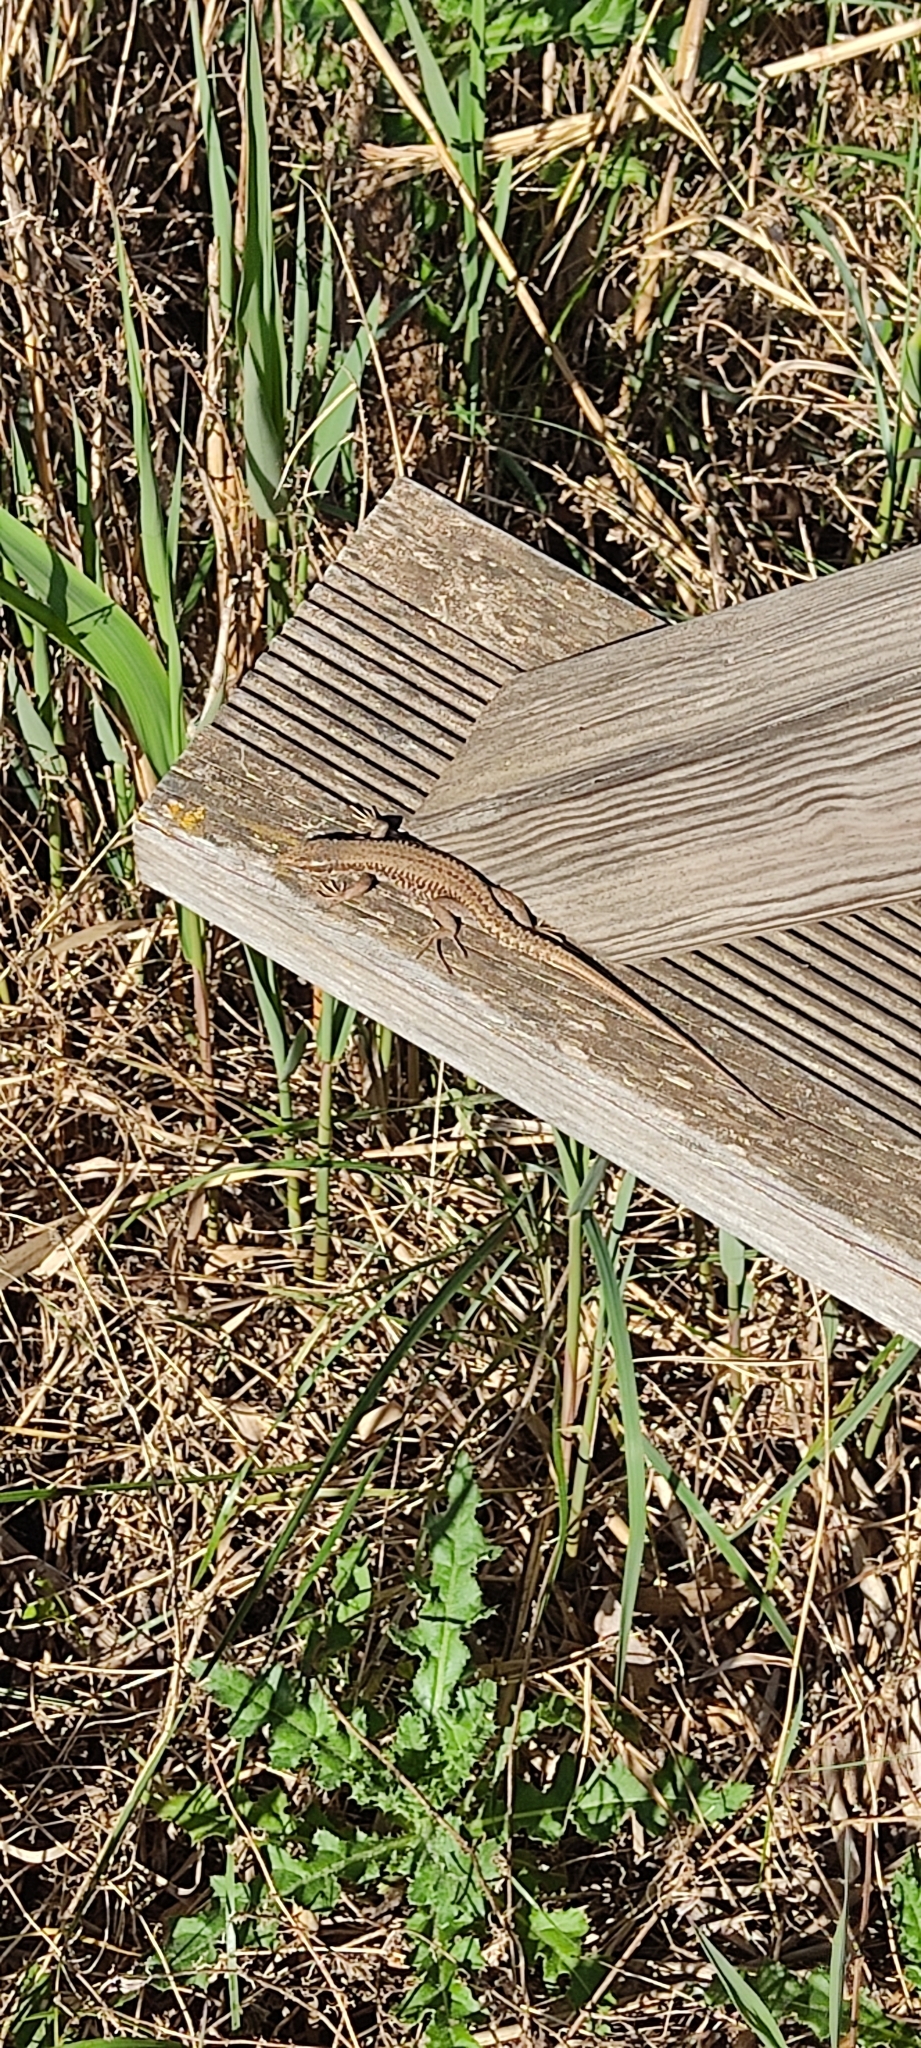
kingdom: Animalia
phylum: Chordata
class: Squamata
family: Lacertidae
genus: Podarcis
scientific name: Podarcis muralis
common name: Common wall lizard
